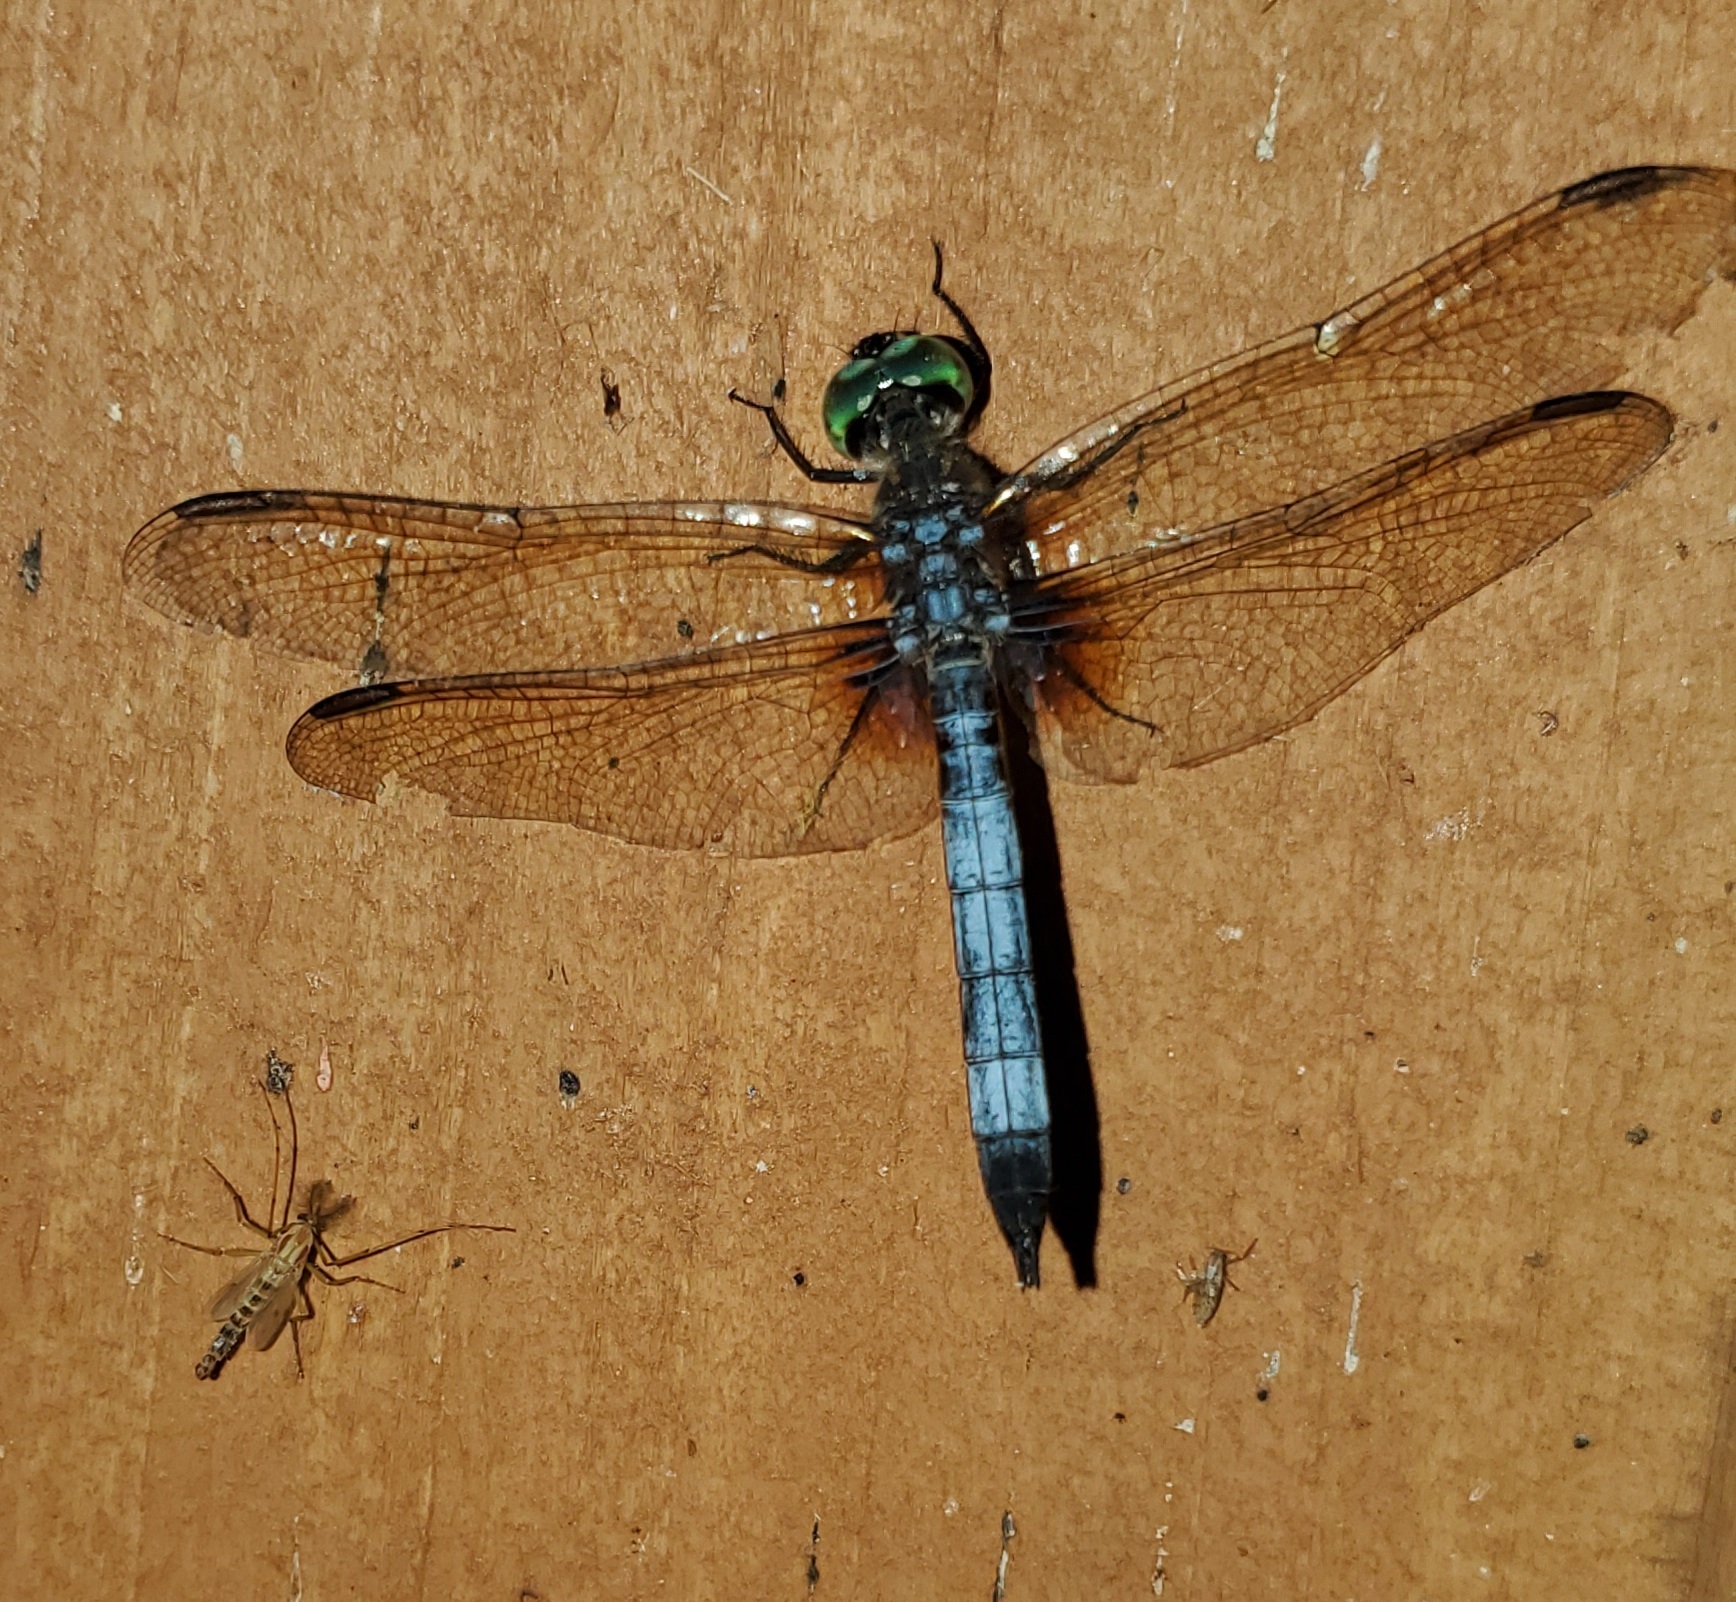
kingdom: Animalia
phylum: Arthropoda
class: Insecta
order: Odonata
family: Libellulidae
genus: Pachydiplax
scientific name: Pachydiplax longipennis
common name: Blue dasher
